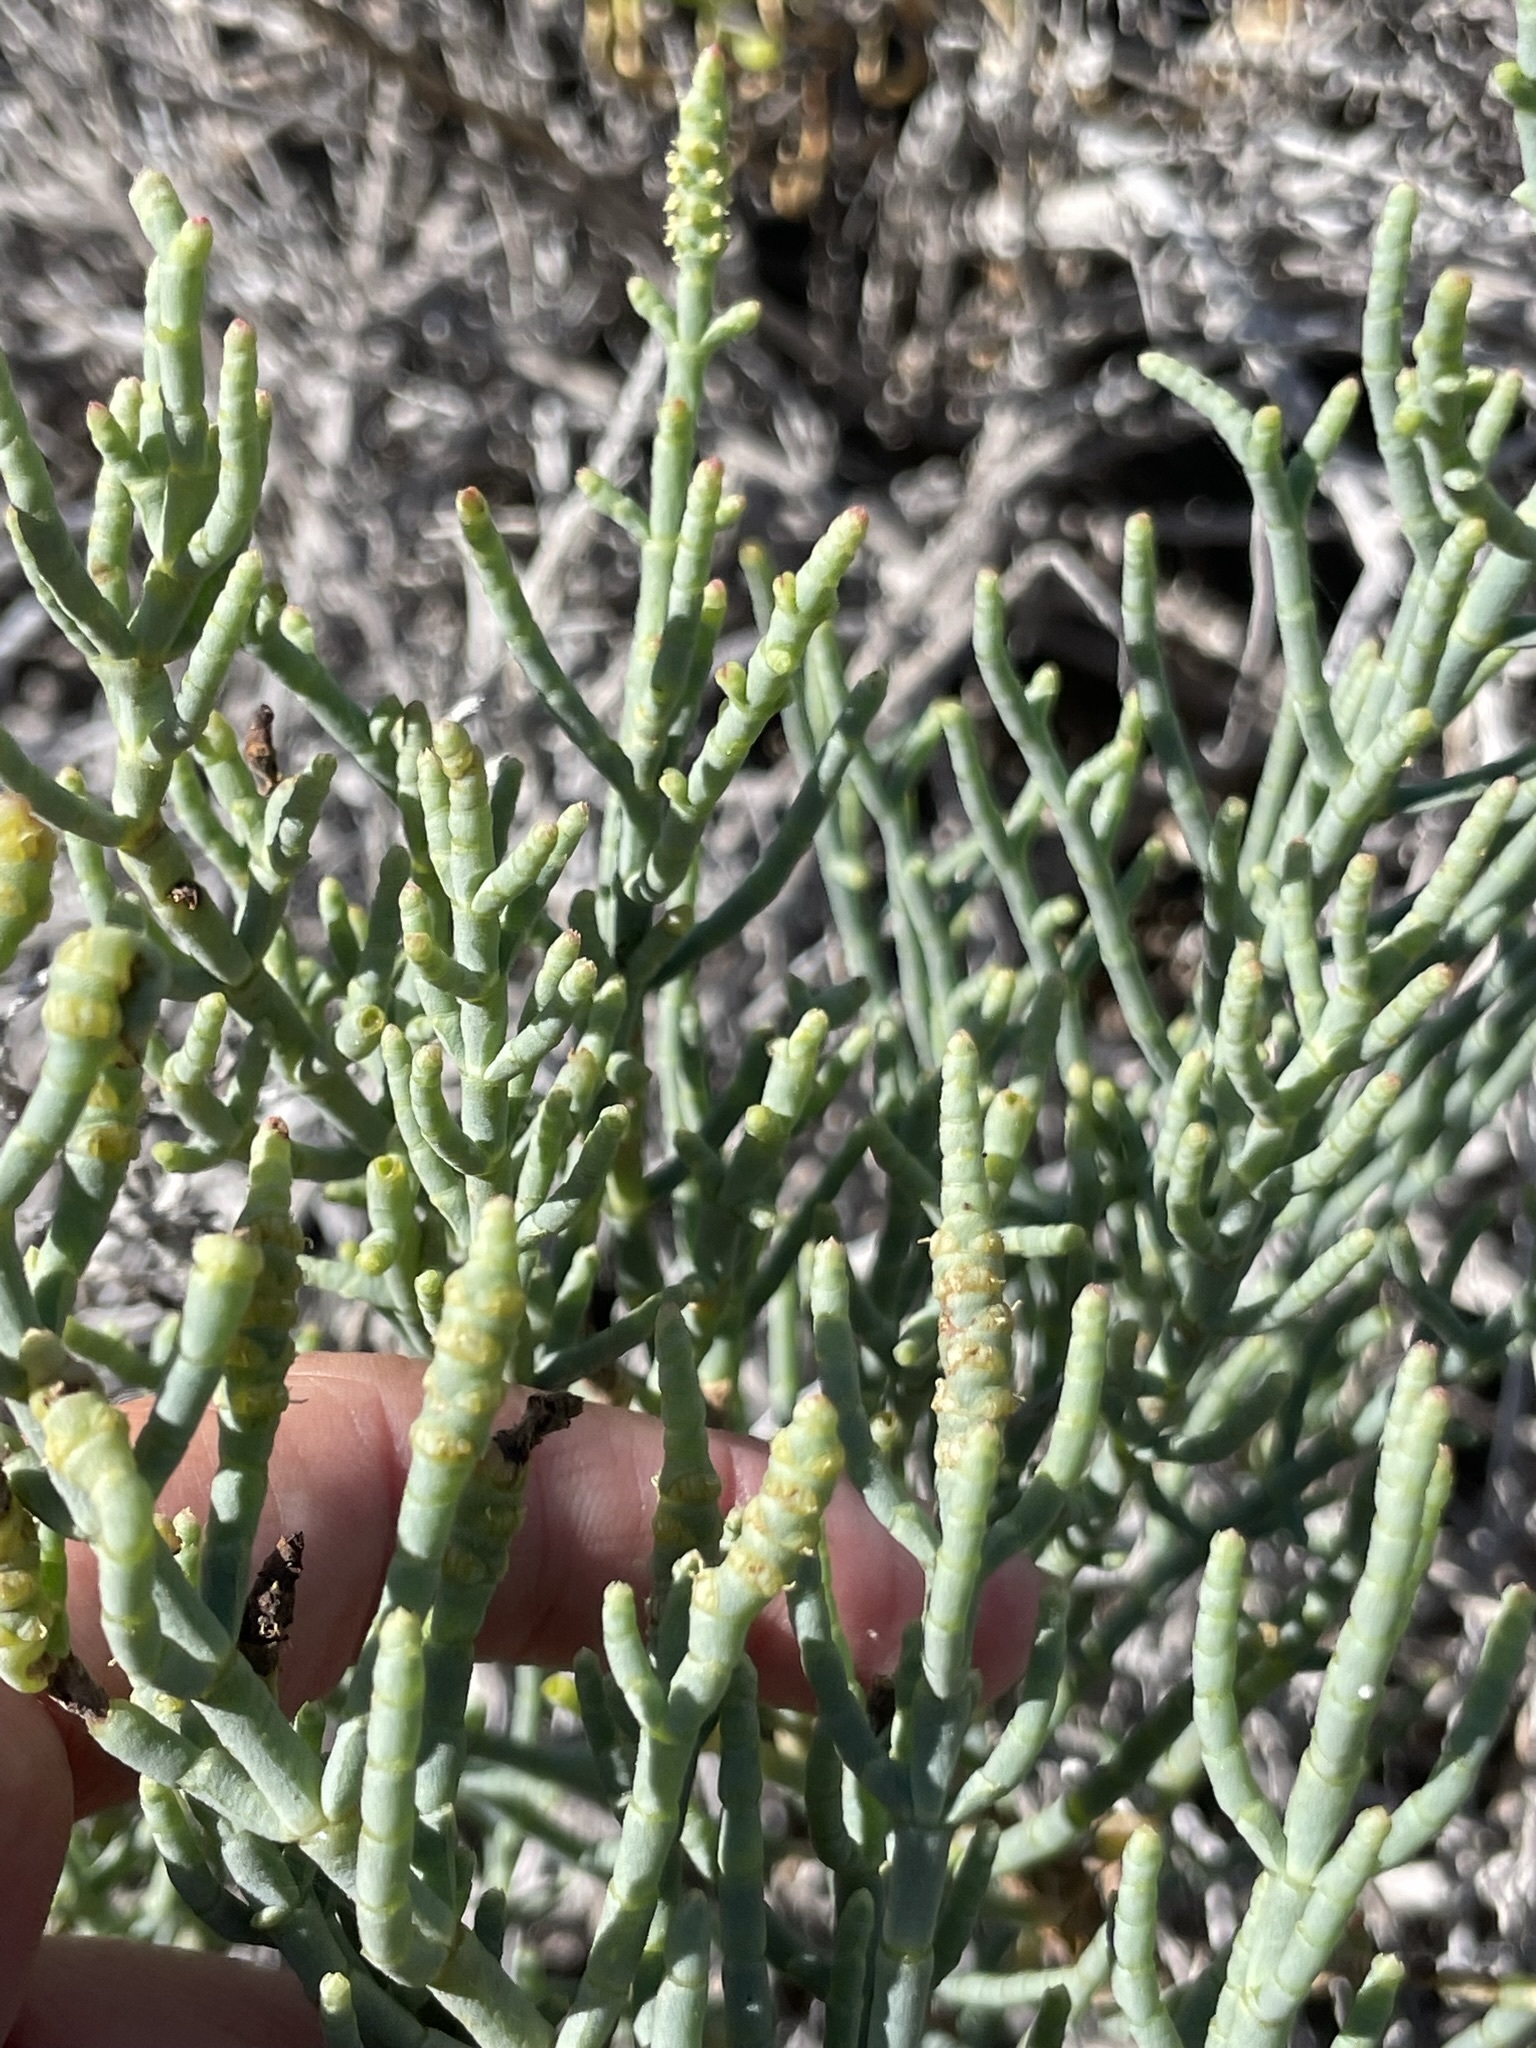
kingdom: Plantae
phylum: Tracheophyta
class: Magnoliopsida
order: Caryophyllales
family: Amaranthaceae
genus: Salicornia
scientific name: Salicornia pacifica
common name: Pacific glasswort
